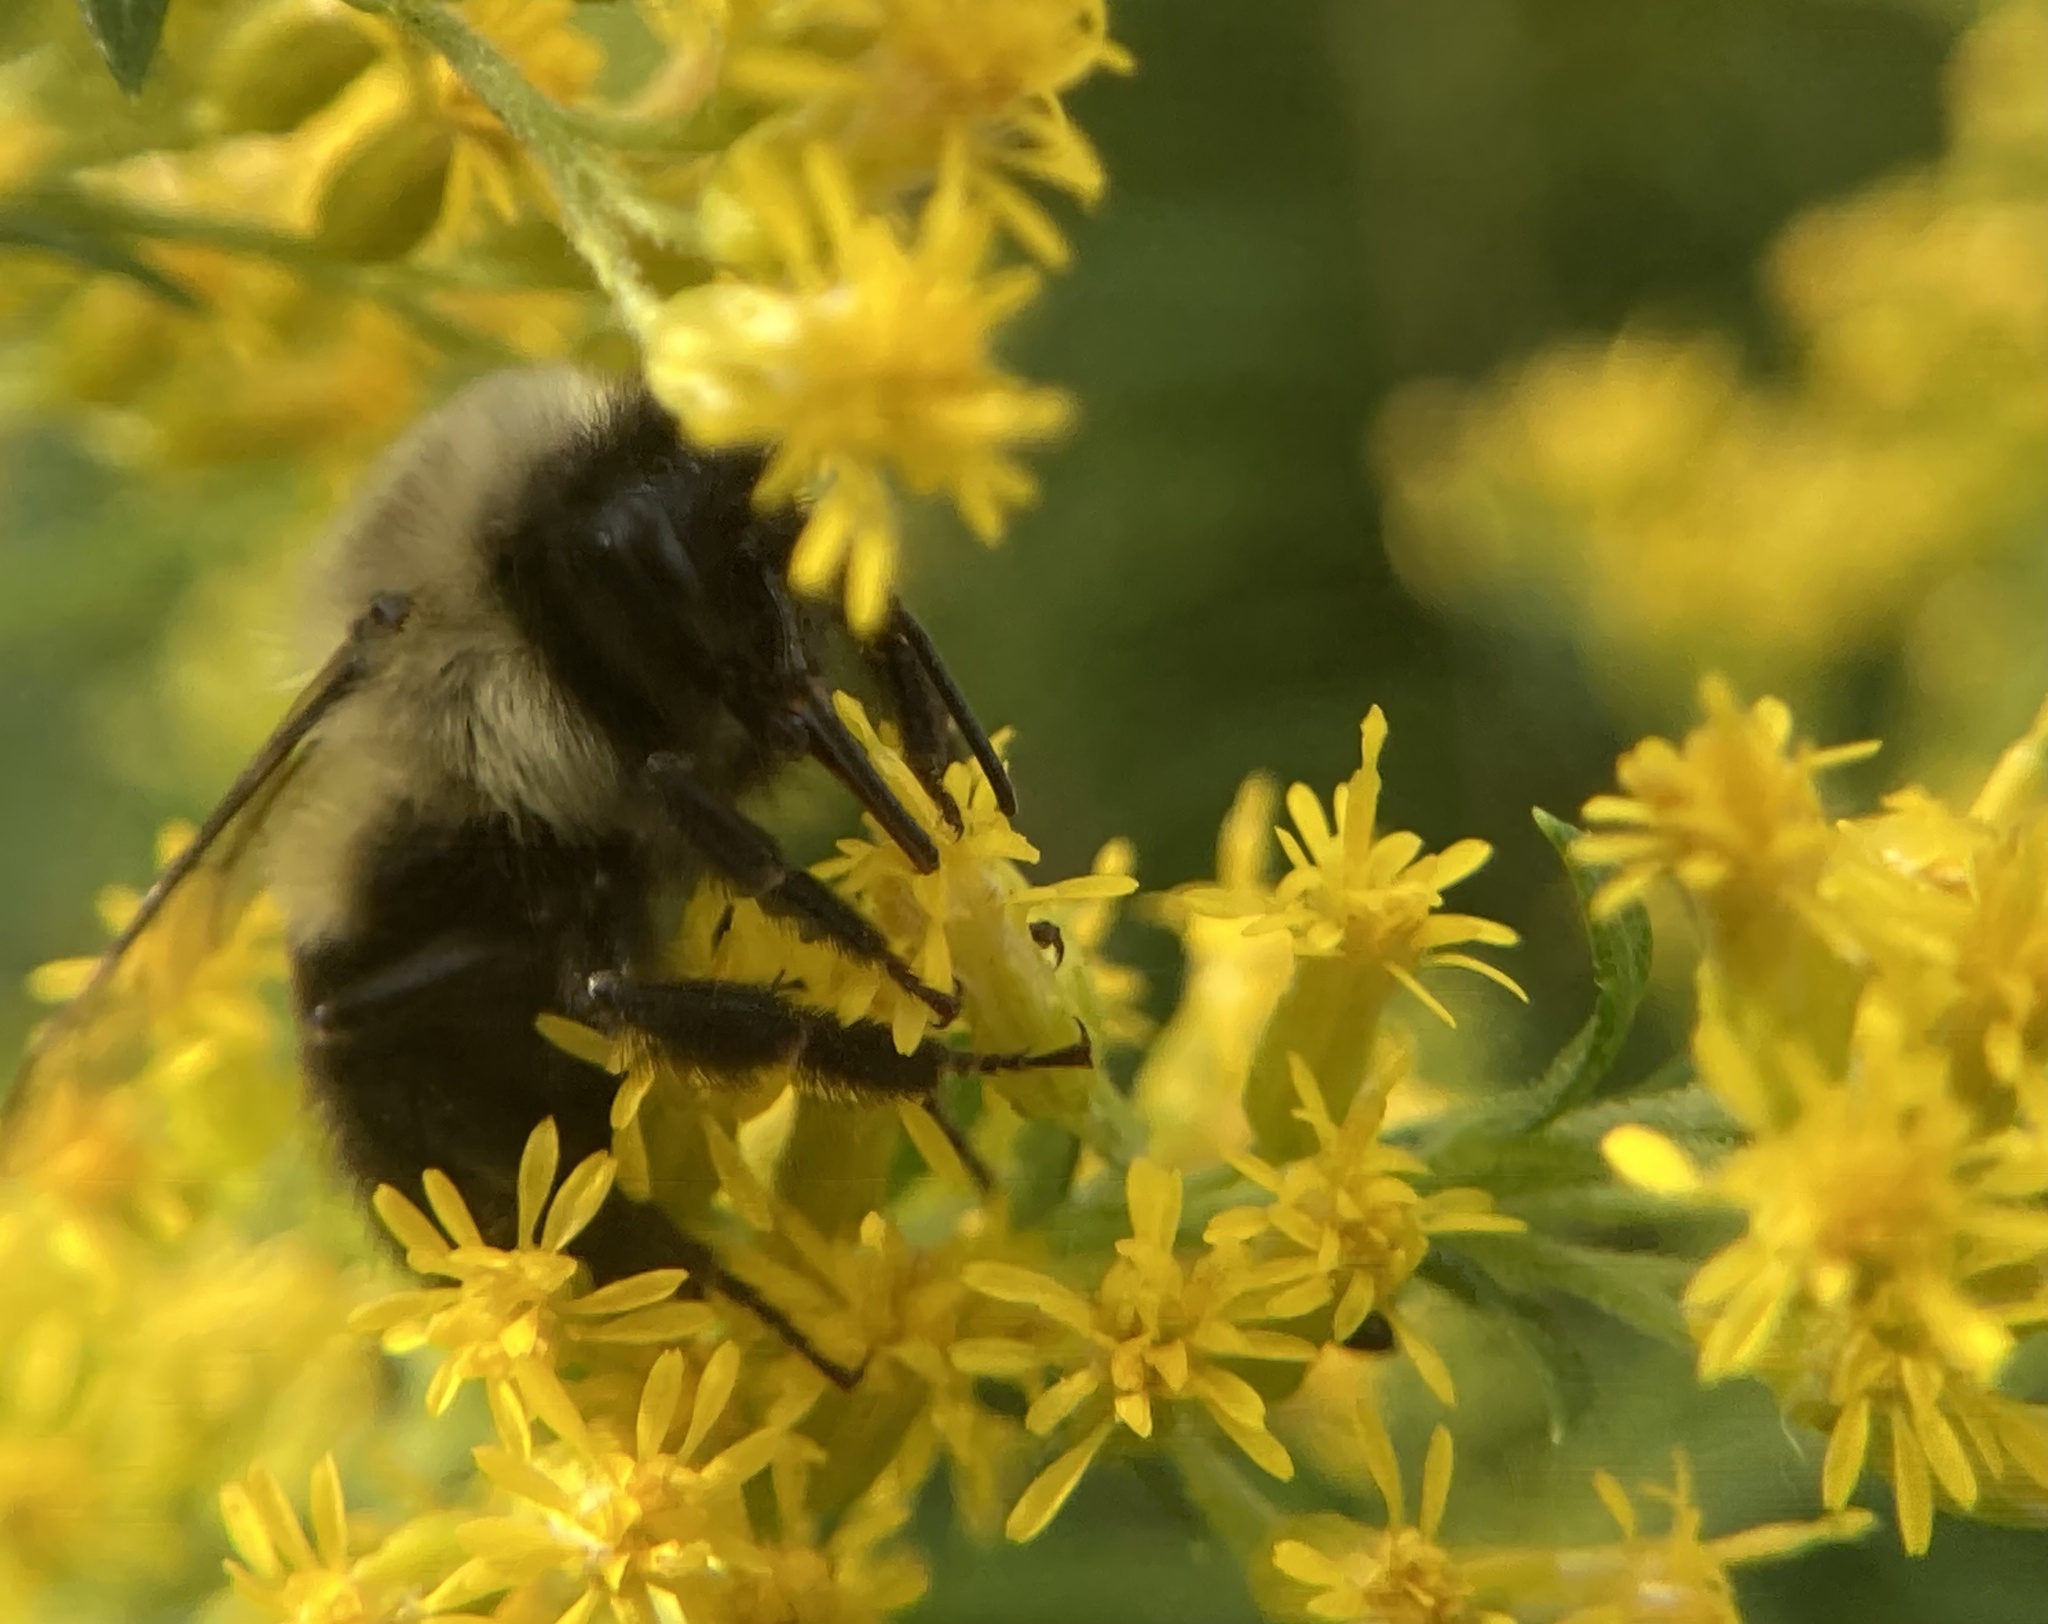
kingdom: Animalia
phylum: Arthropoda
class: Insecta
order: Hymenoptera
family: Apidae
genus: Bombus
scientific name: Bombus impatiens
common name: Common eastern bumble bee
